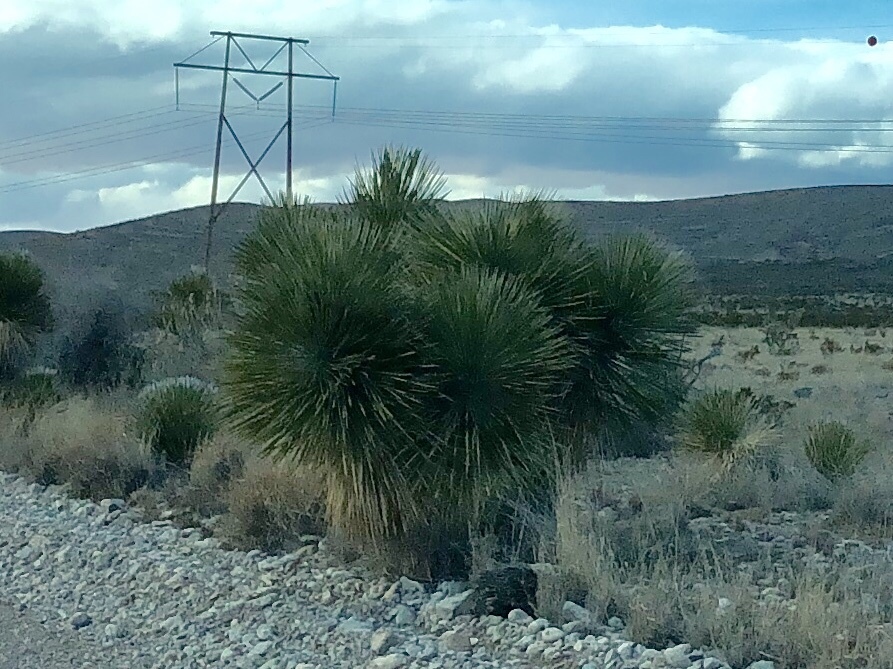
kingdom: Plantae
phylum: Tracheophyta
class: Liliopsida
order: Asparagales
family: Asparagaceae
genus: Yucca
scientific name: Yucca elata
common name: Palmella
